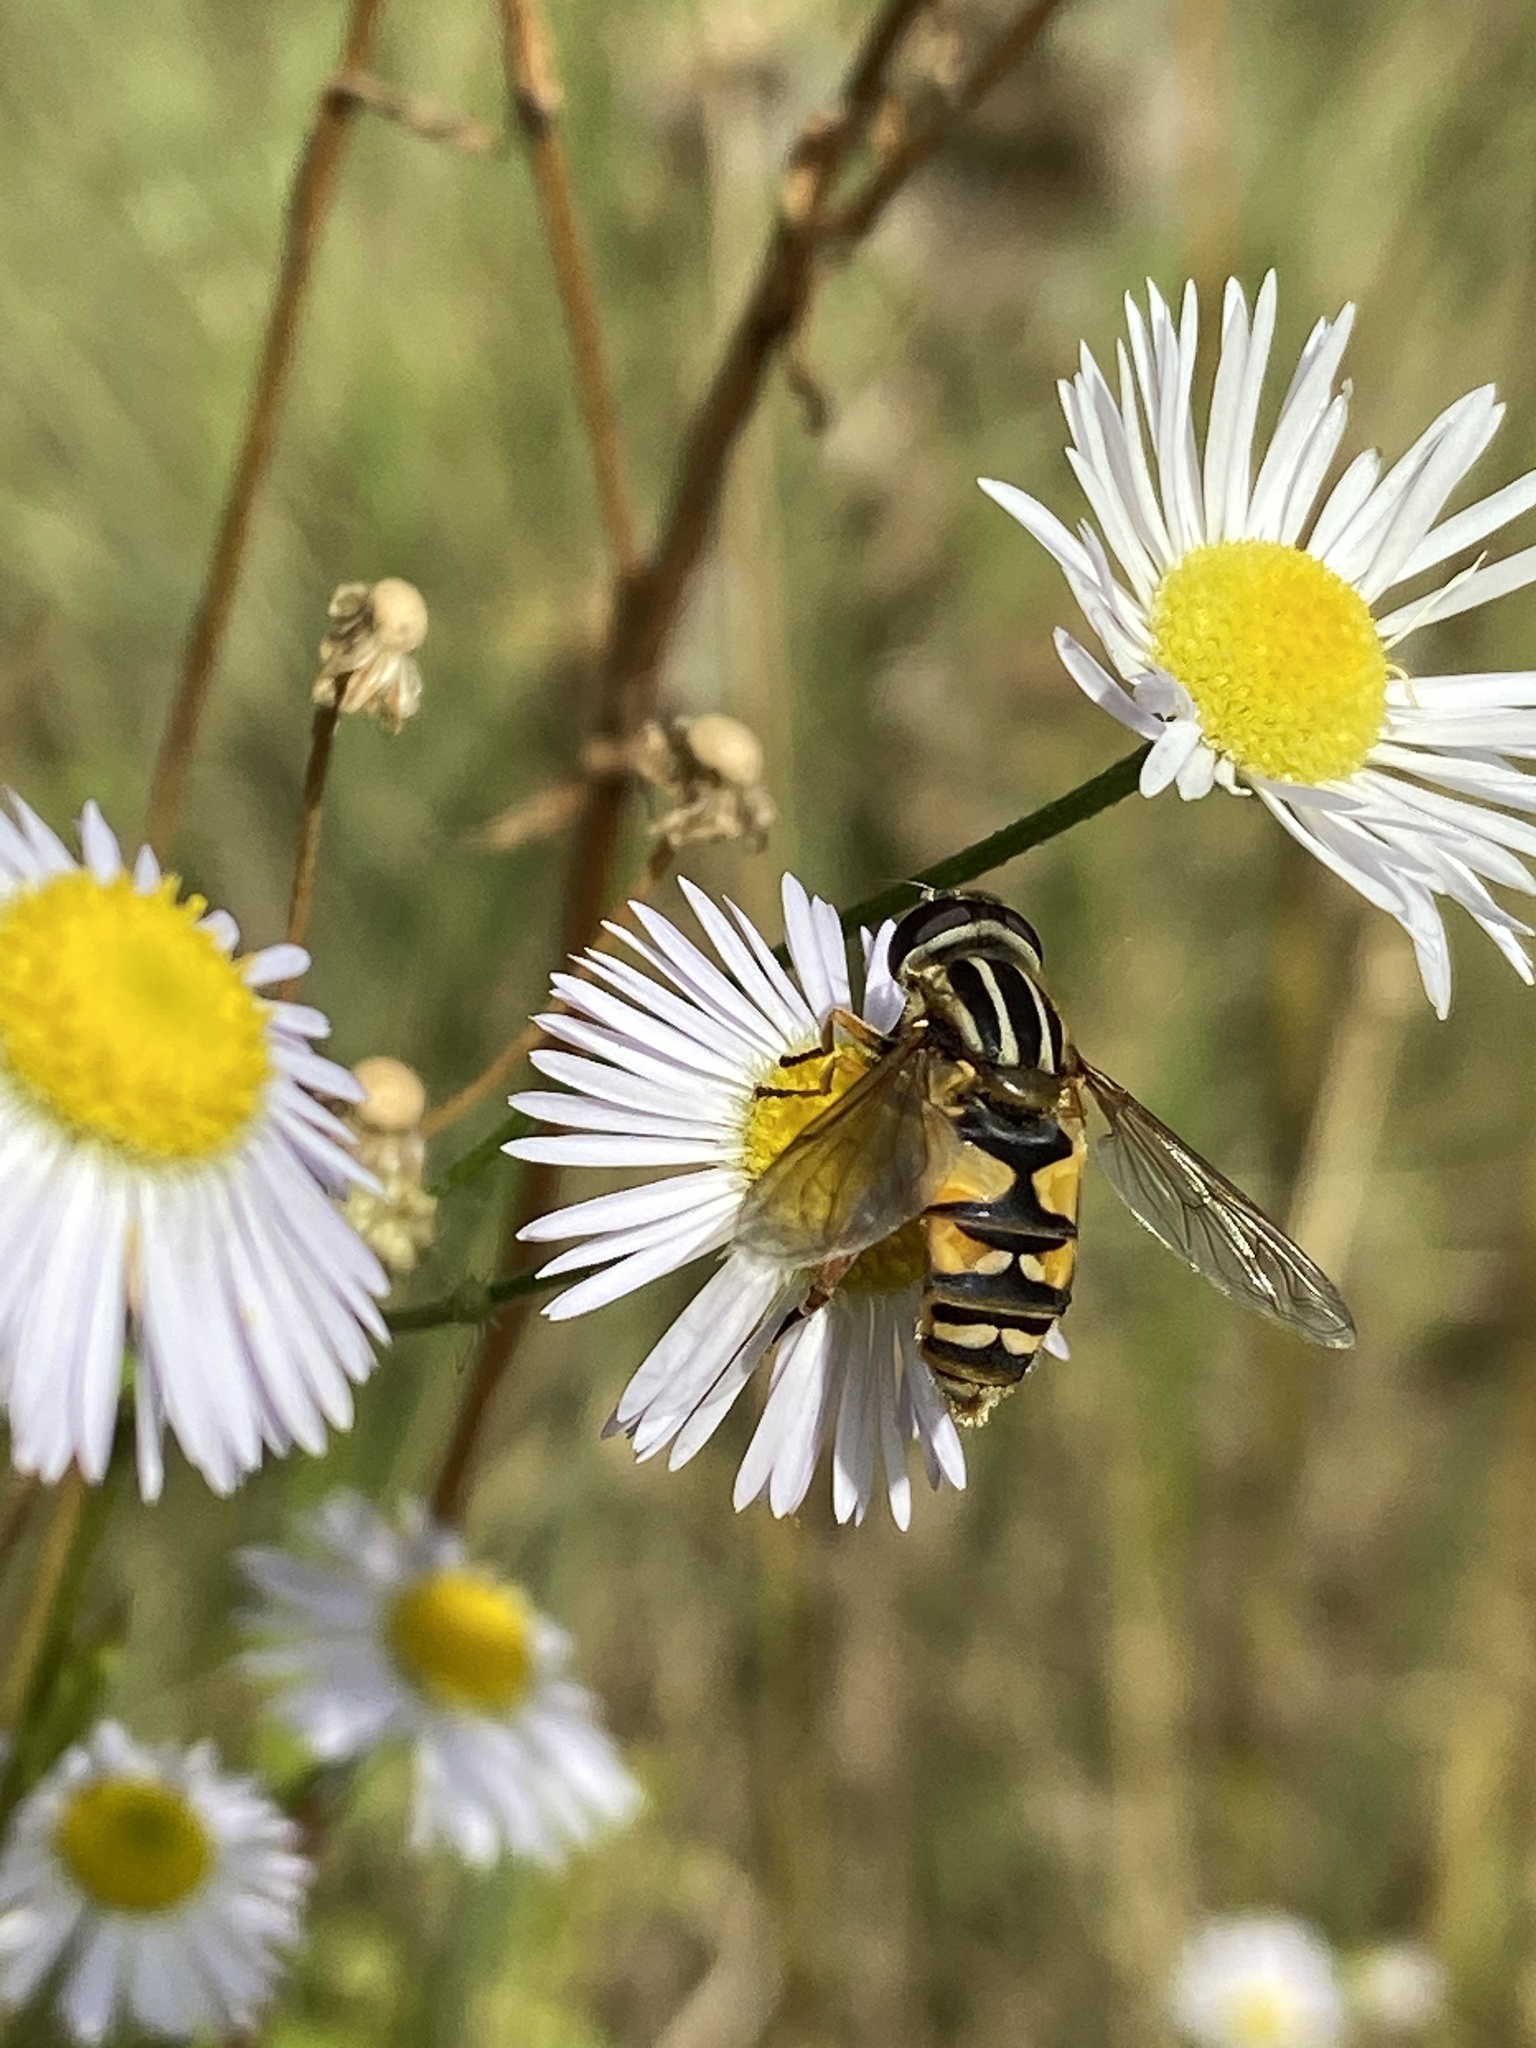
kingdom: Animalia
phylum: Arthropoda
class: Insecta
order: Diptera
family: Syrphidae
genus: Helophilus
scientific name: Helophilus pendulus
